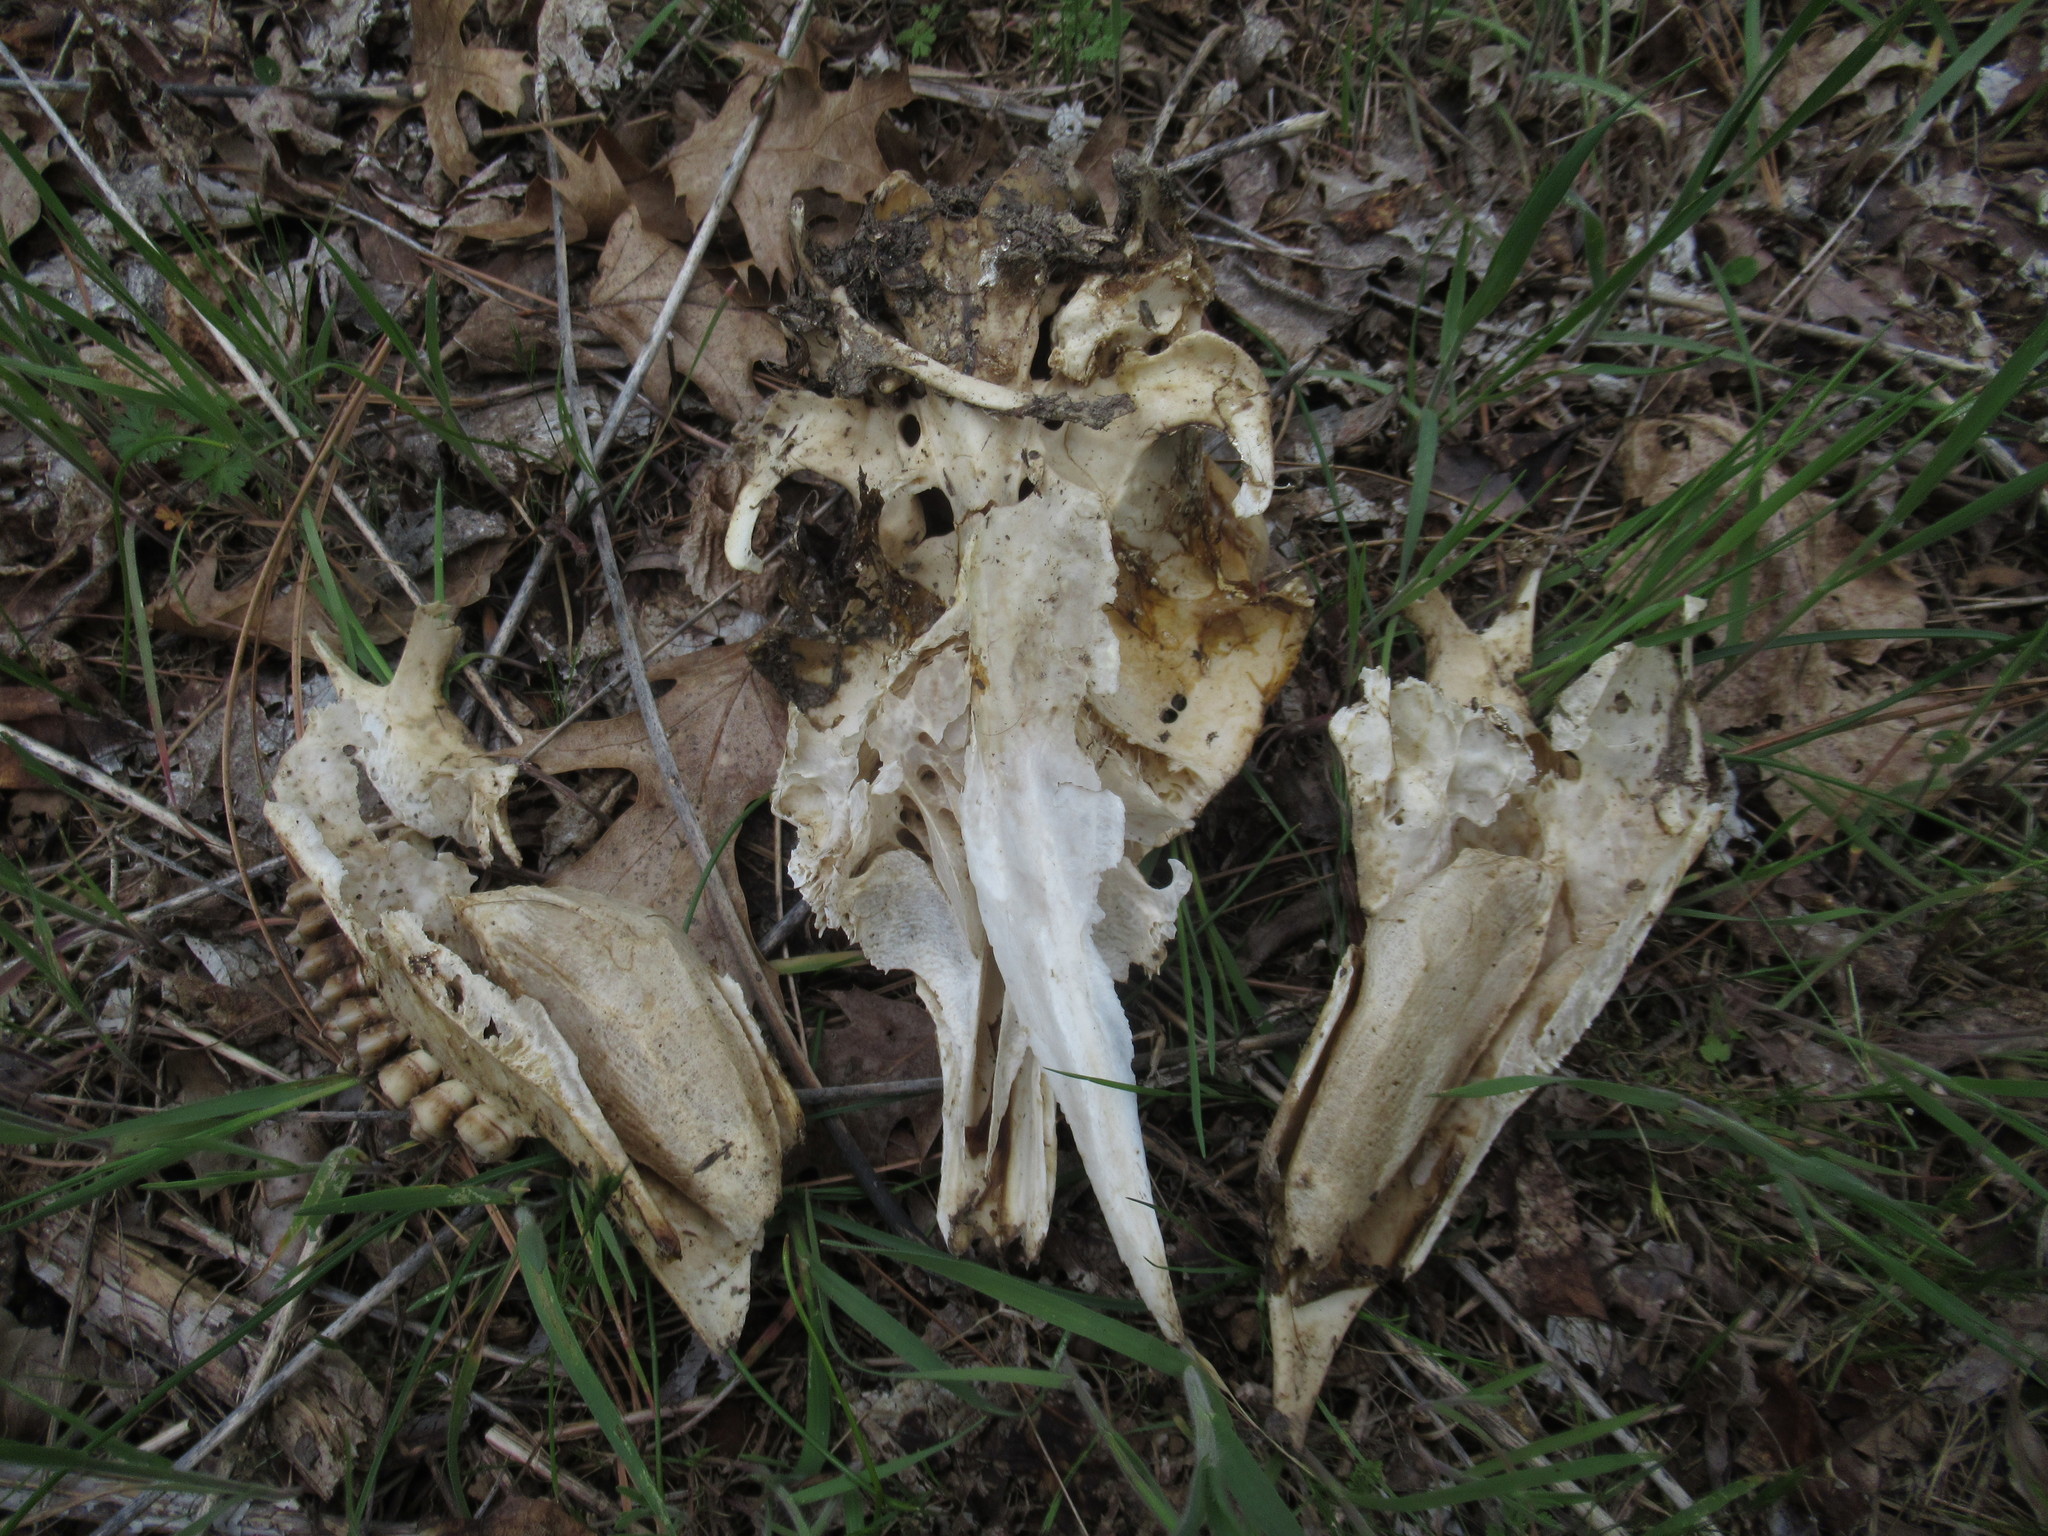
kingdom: Animalia
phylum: Chordata
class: Mammalia
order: Artiodactyla
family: Cervidae
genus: Odocoileus
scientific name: Odocoileus hemionus
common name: Mule deer
